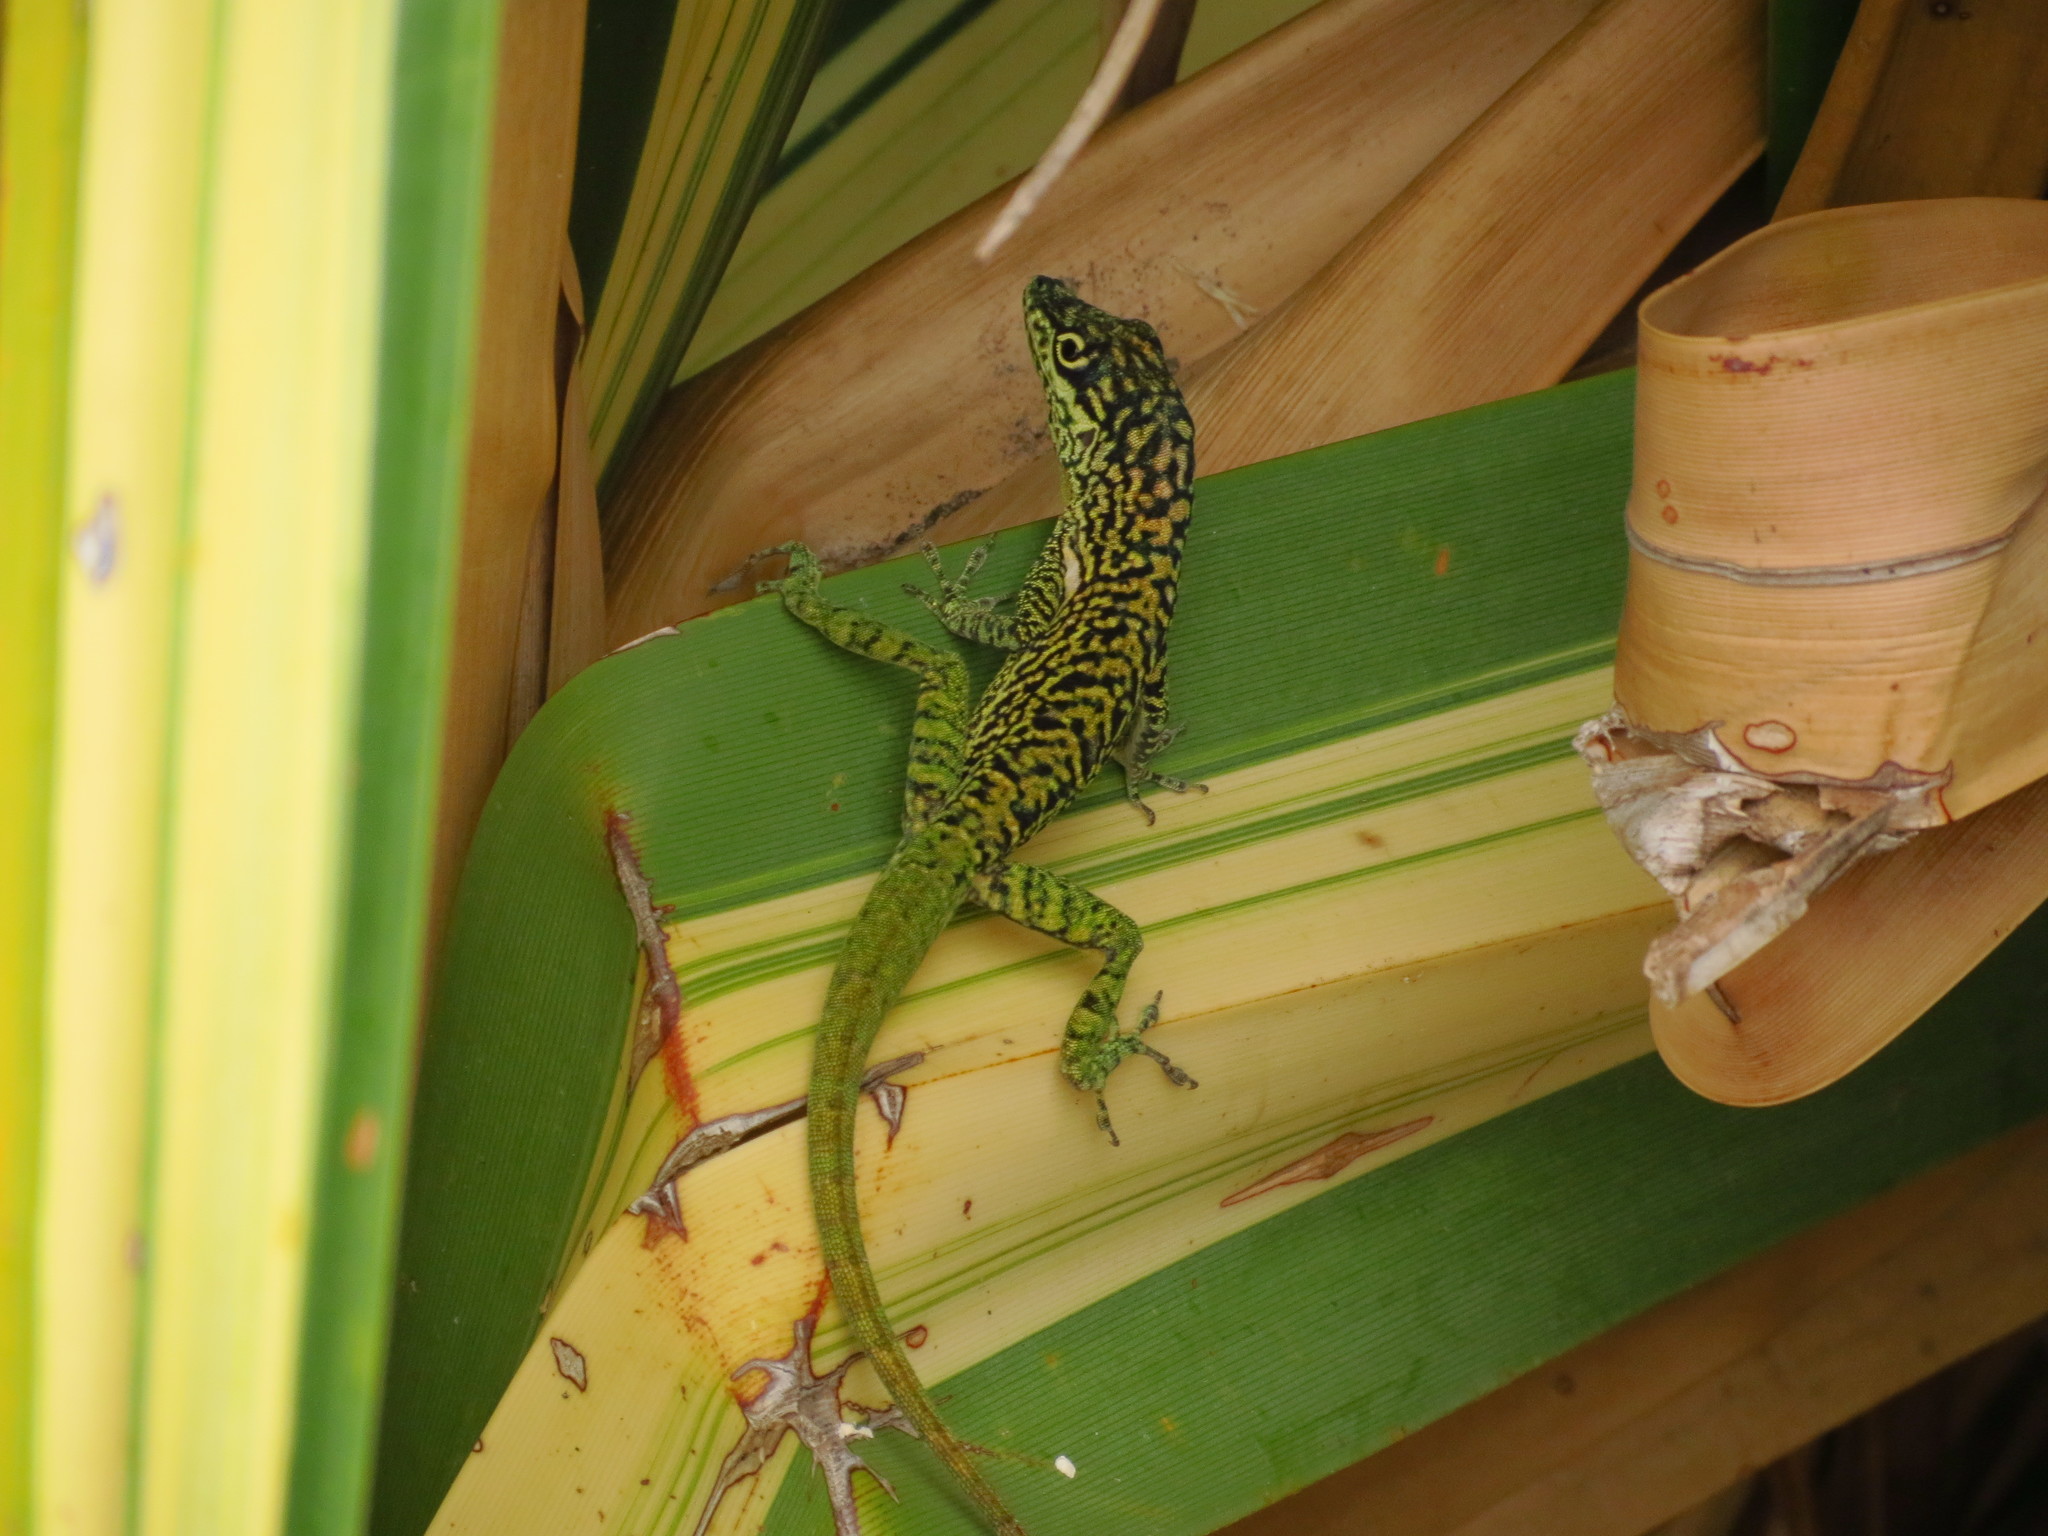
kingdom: Animalia
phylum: Chordata
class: Squamata
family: Dactyloidae
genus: Anolis
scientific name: Anolis roquet
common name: Martinique anole
